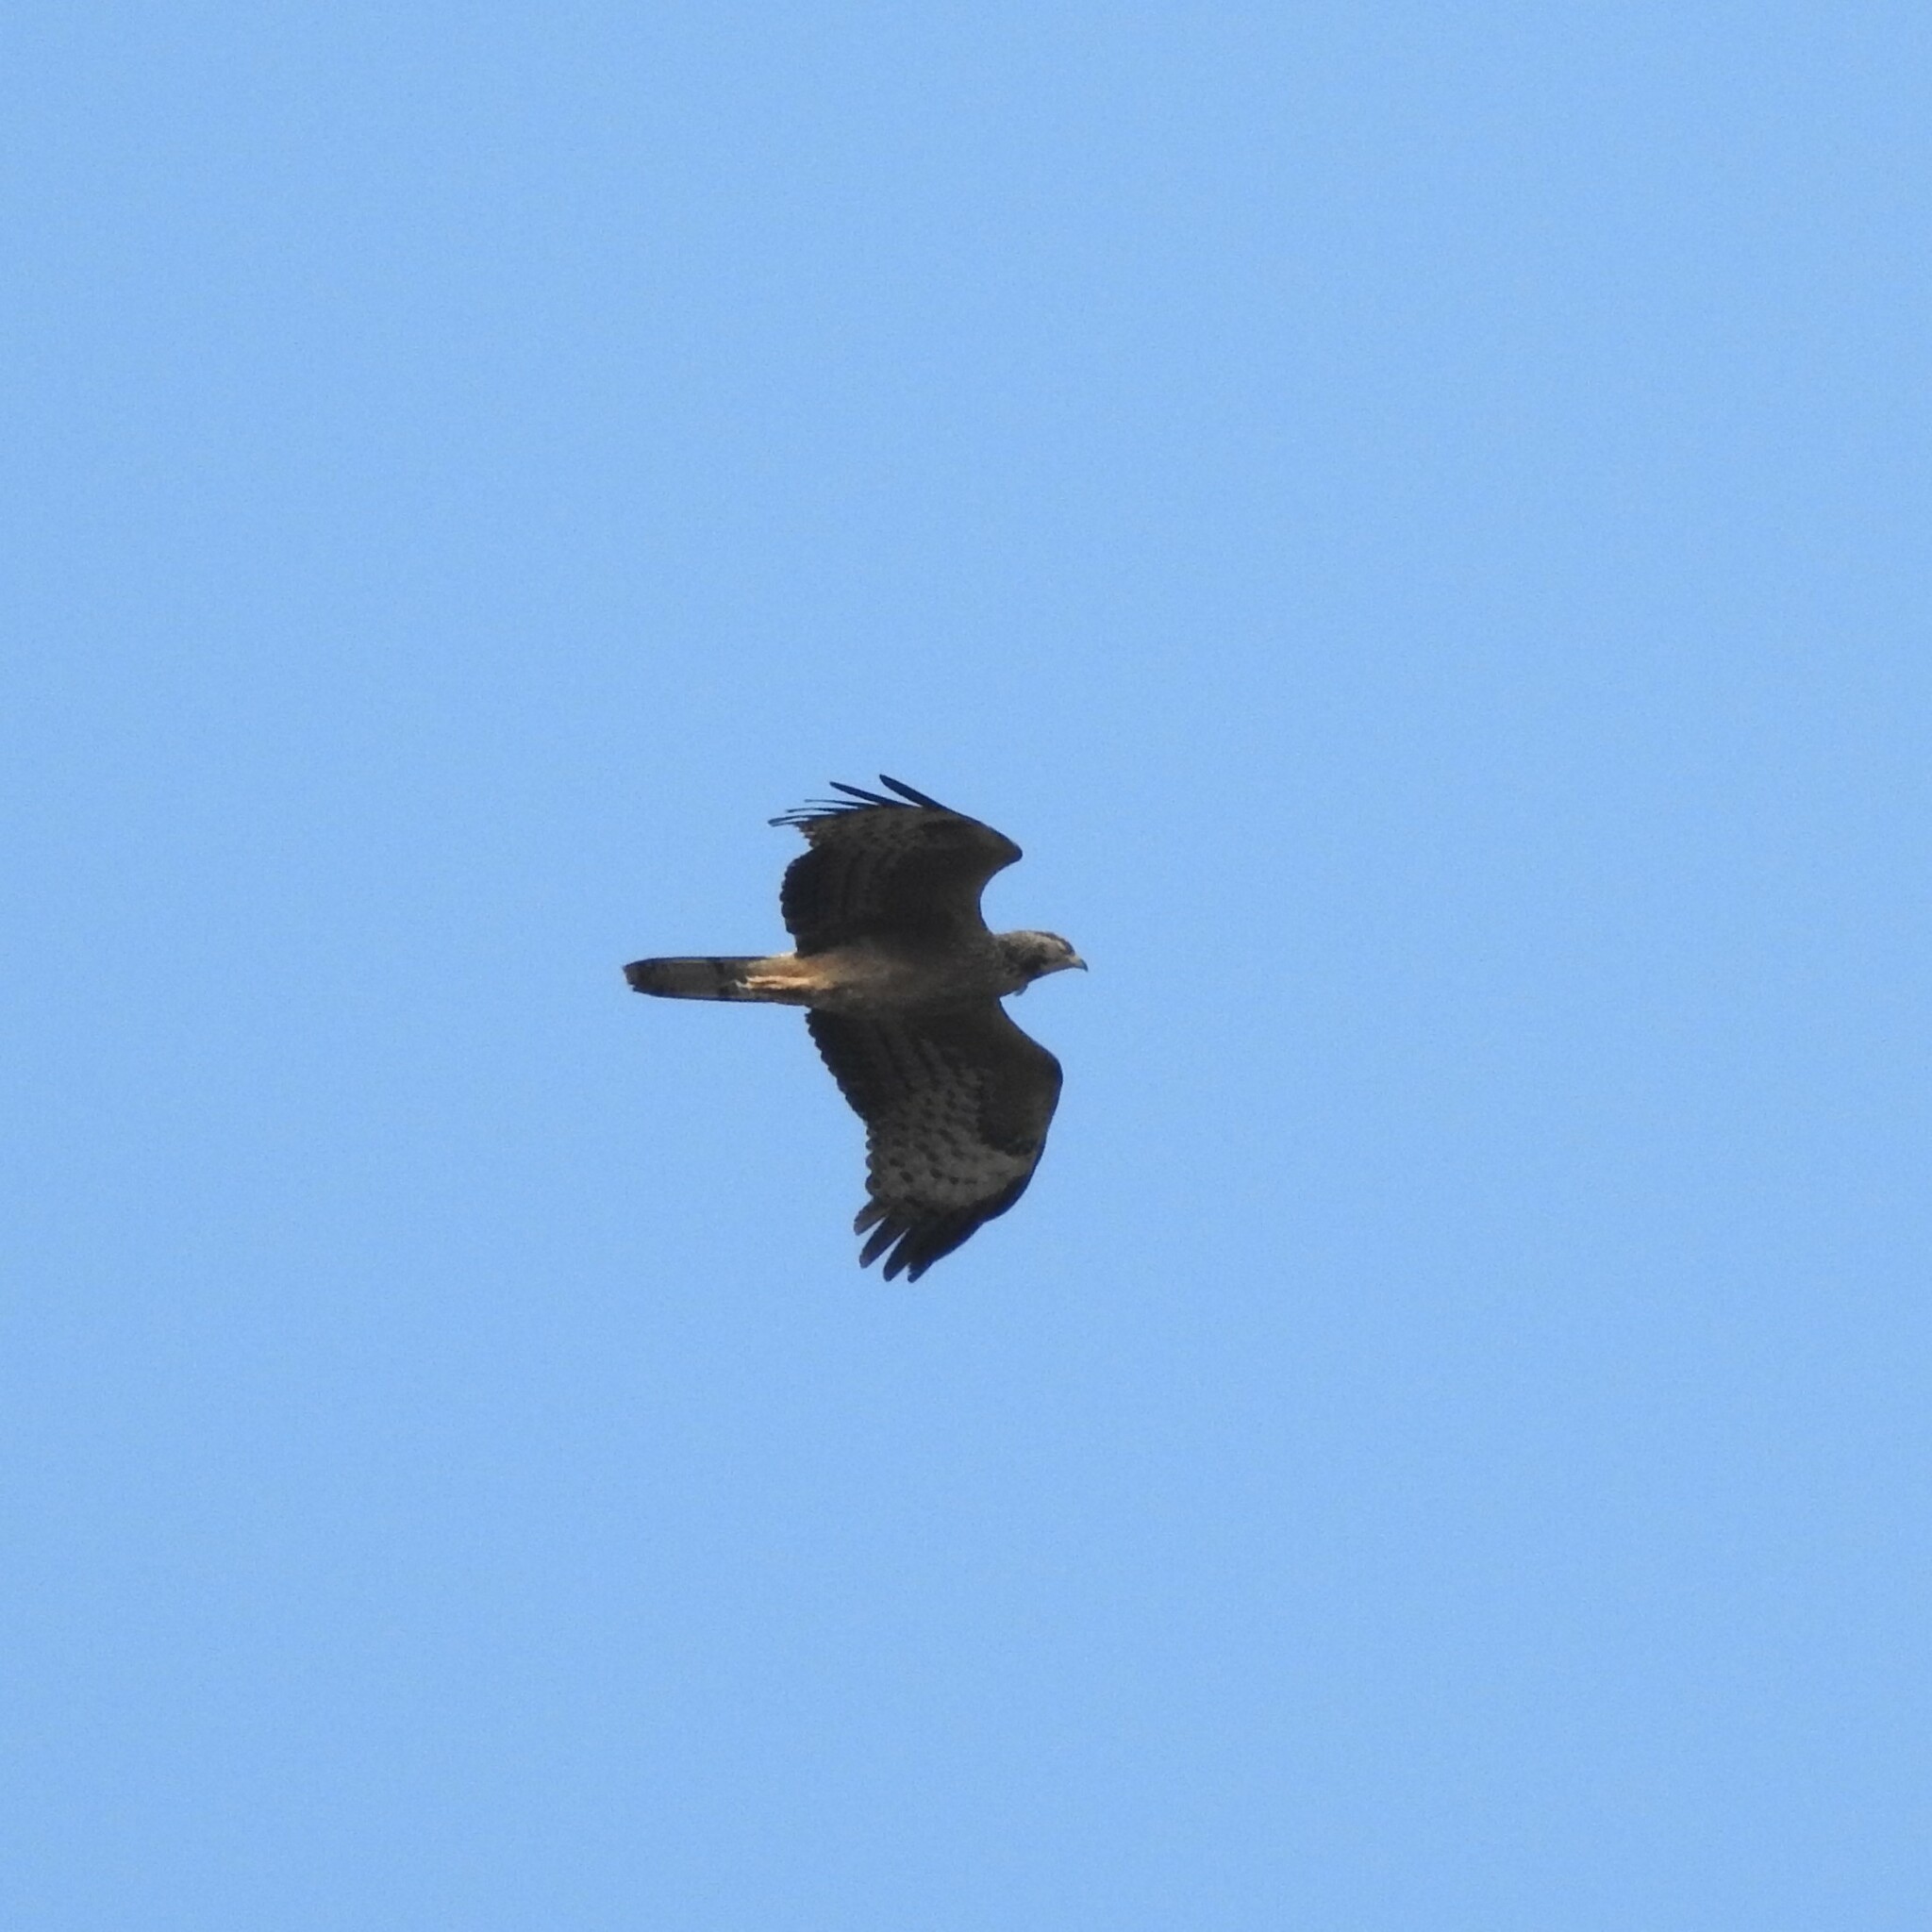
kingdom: Animalia
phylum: Chordata
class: Aves
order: Accipitriformes
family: Accipitridae
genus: Pernis
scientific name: Pernis ptilorhynchus
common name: Crested honey buzzard
